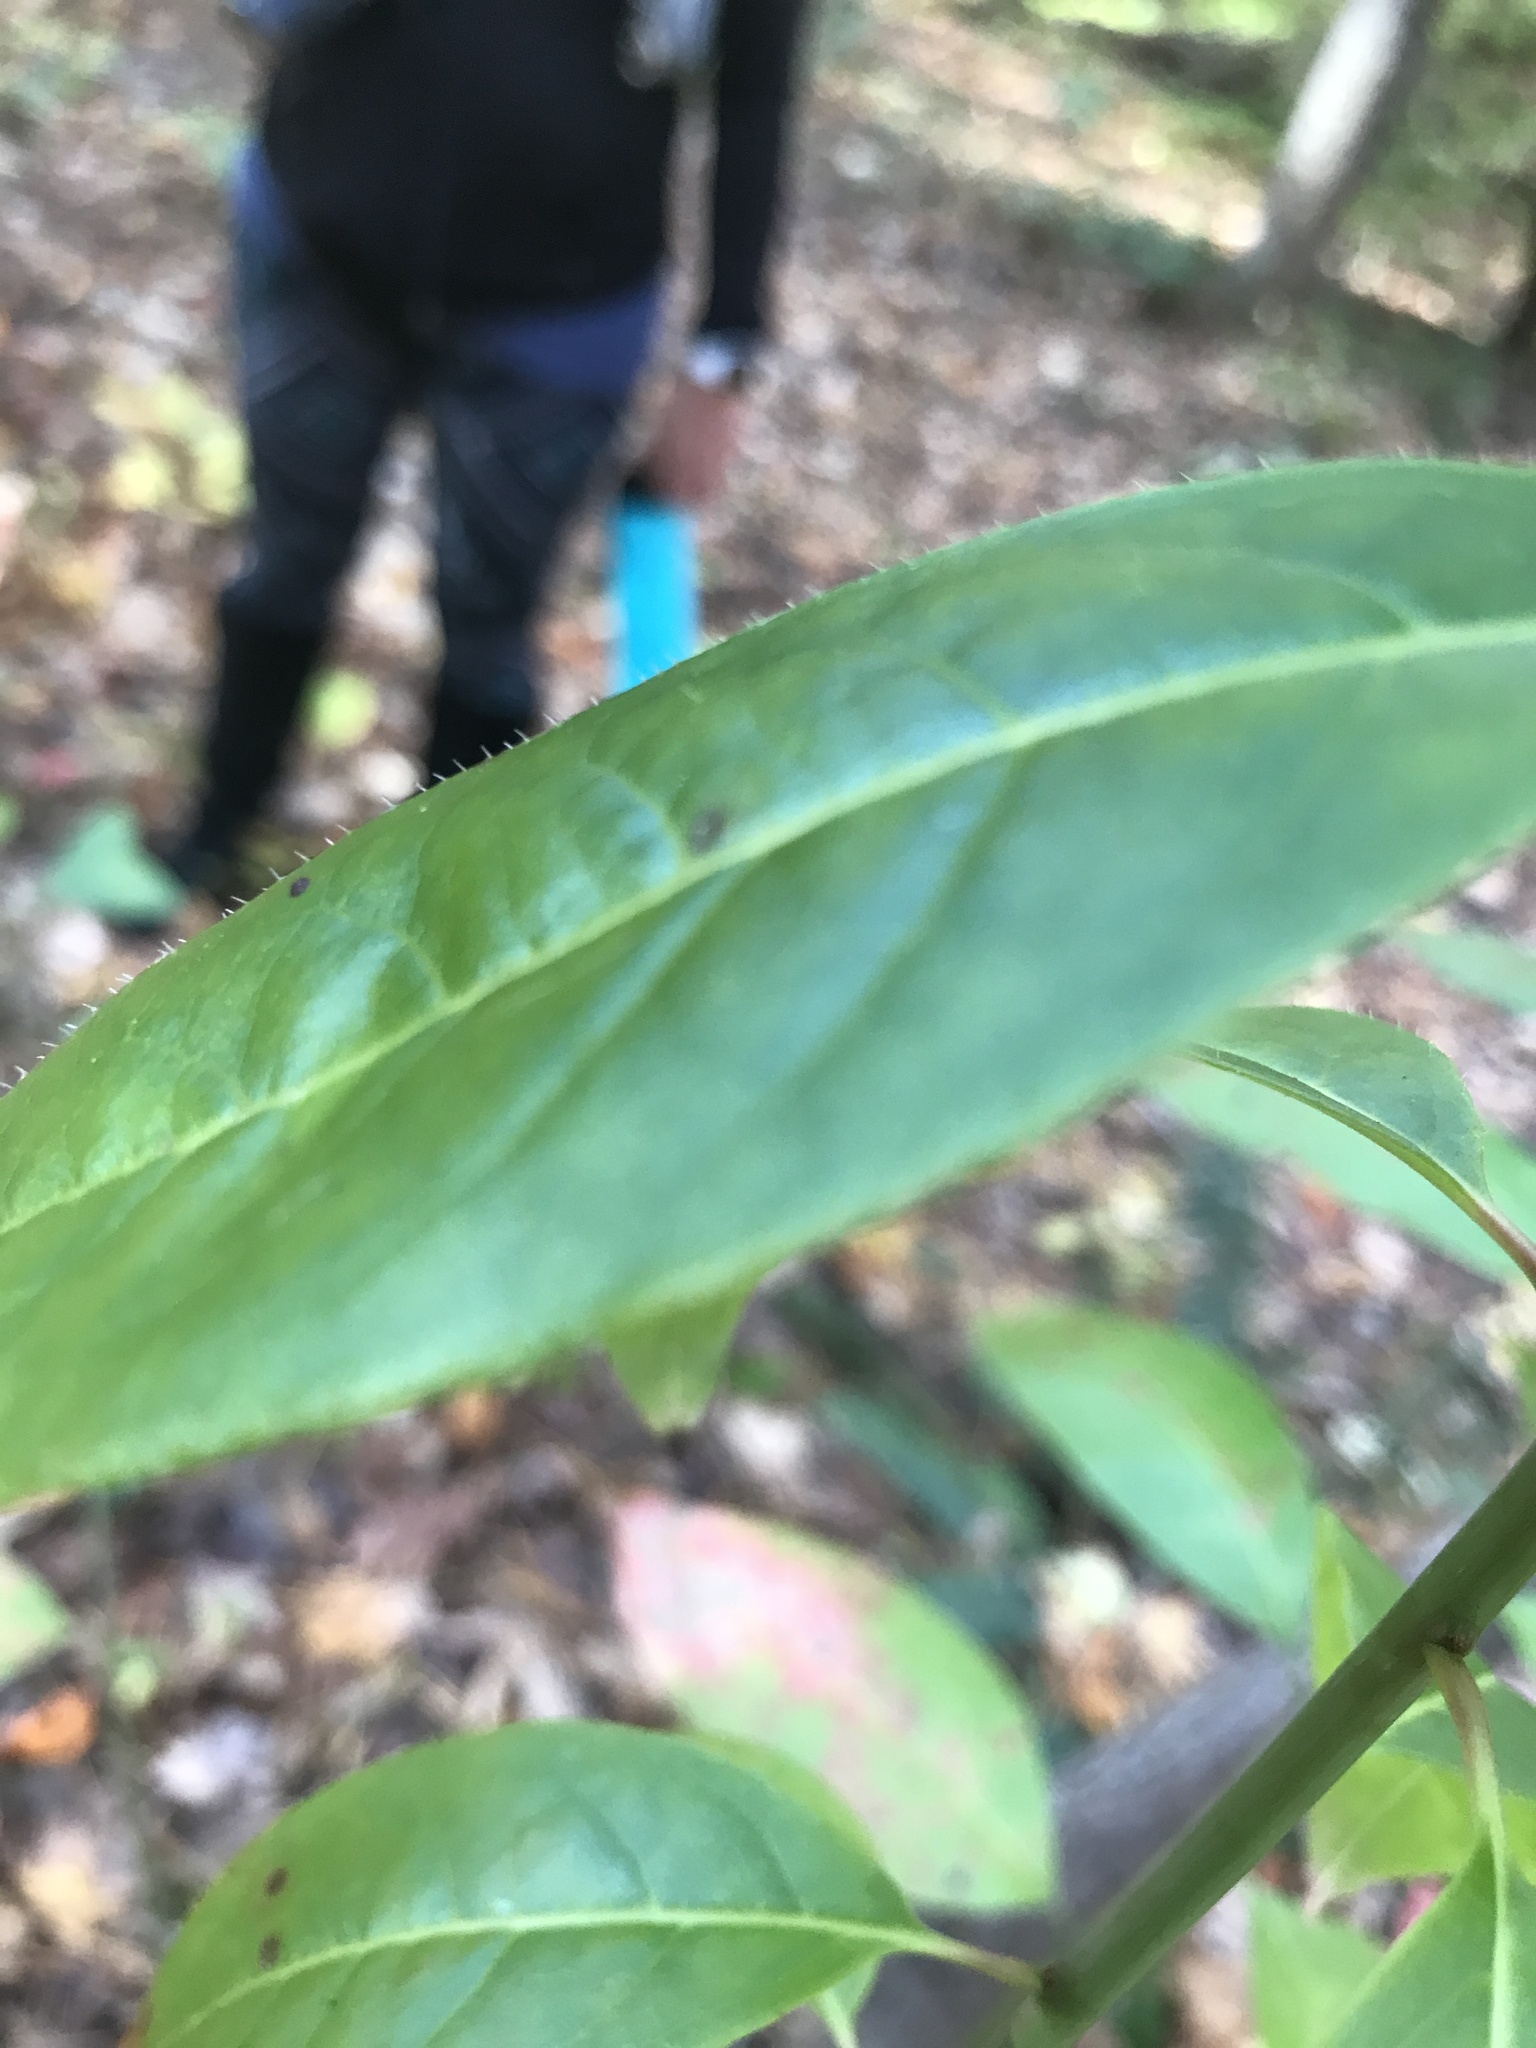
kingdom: Plantae
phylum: Tracheophyta
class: Magnoliopsida
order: Ericales
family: Ericaceae
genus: Oxydendrum
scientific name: Oxydendrum arboreum
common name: Sourwood
